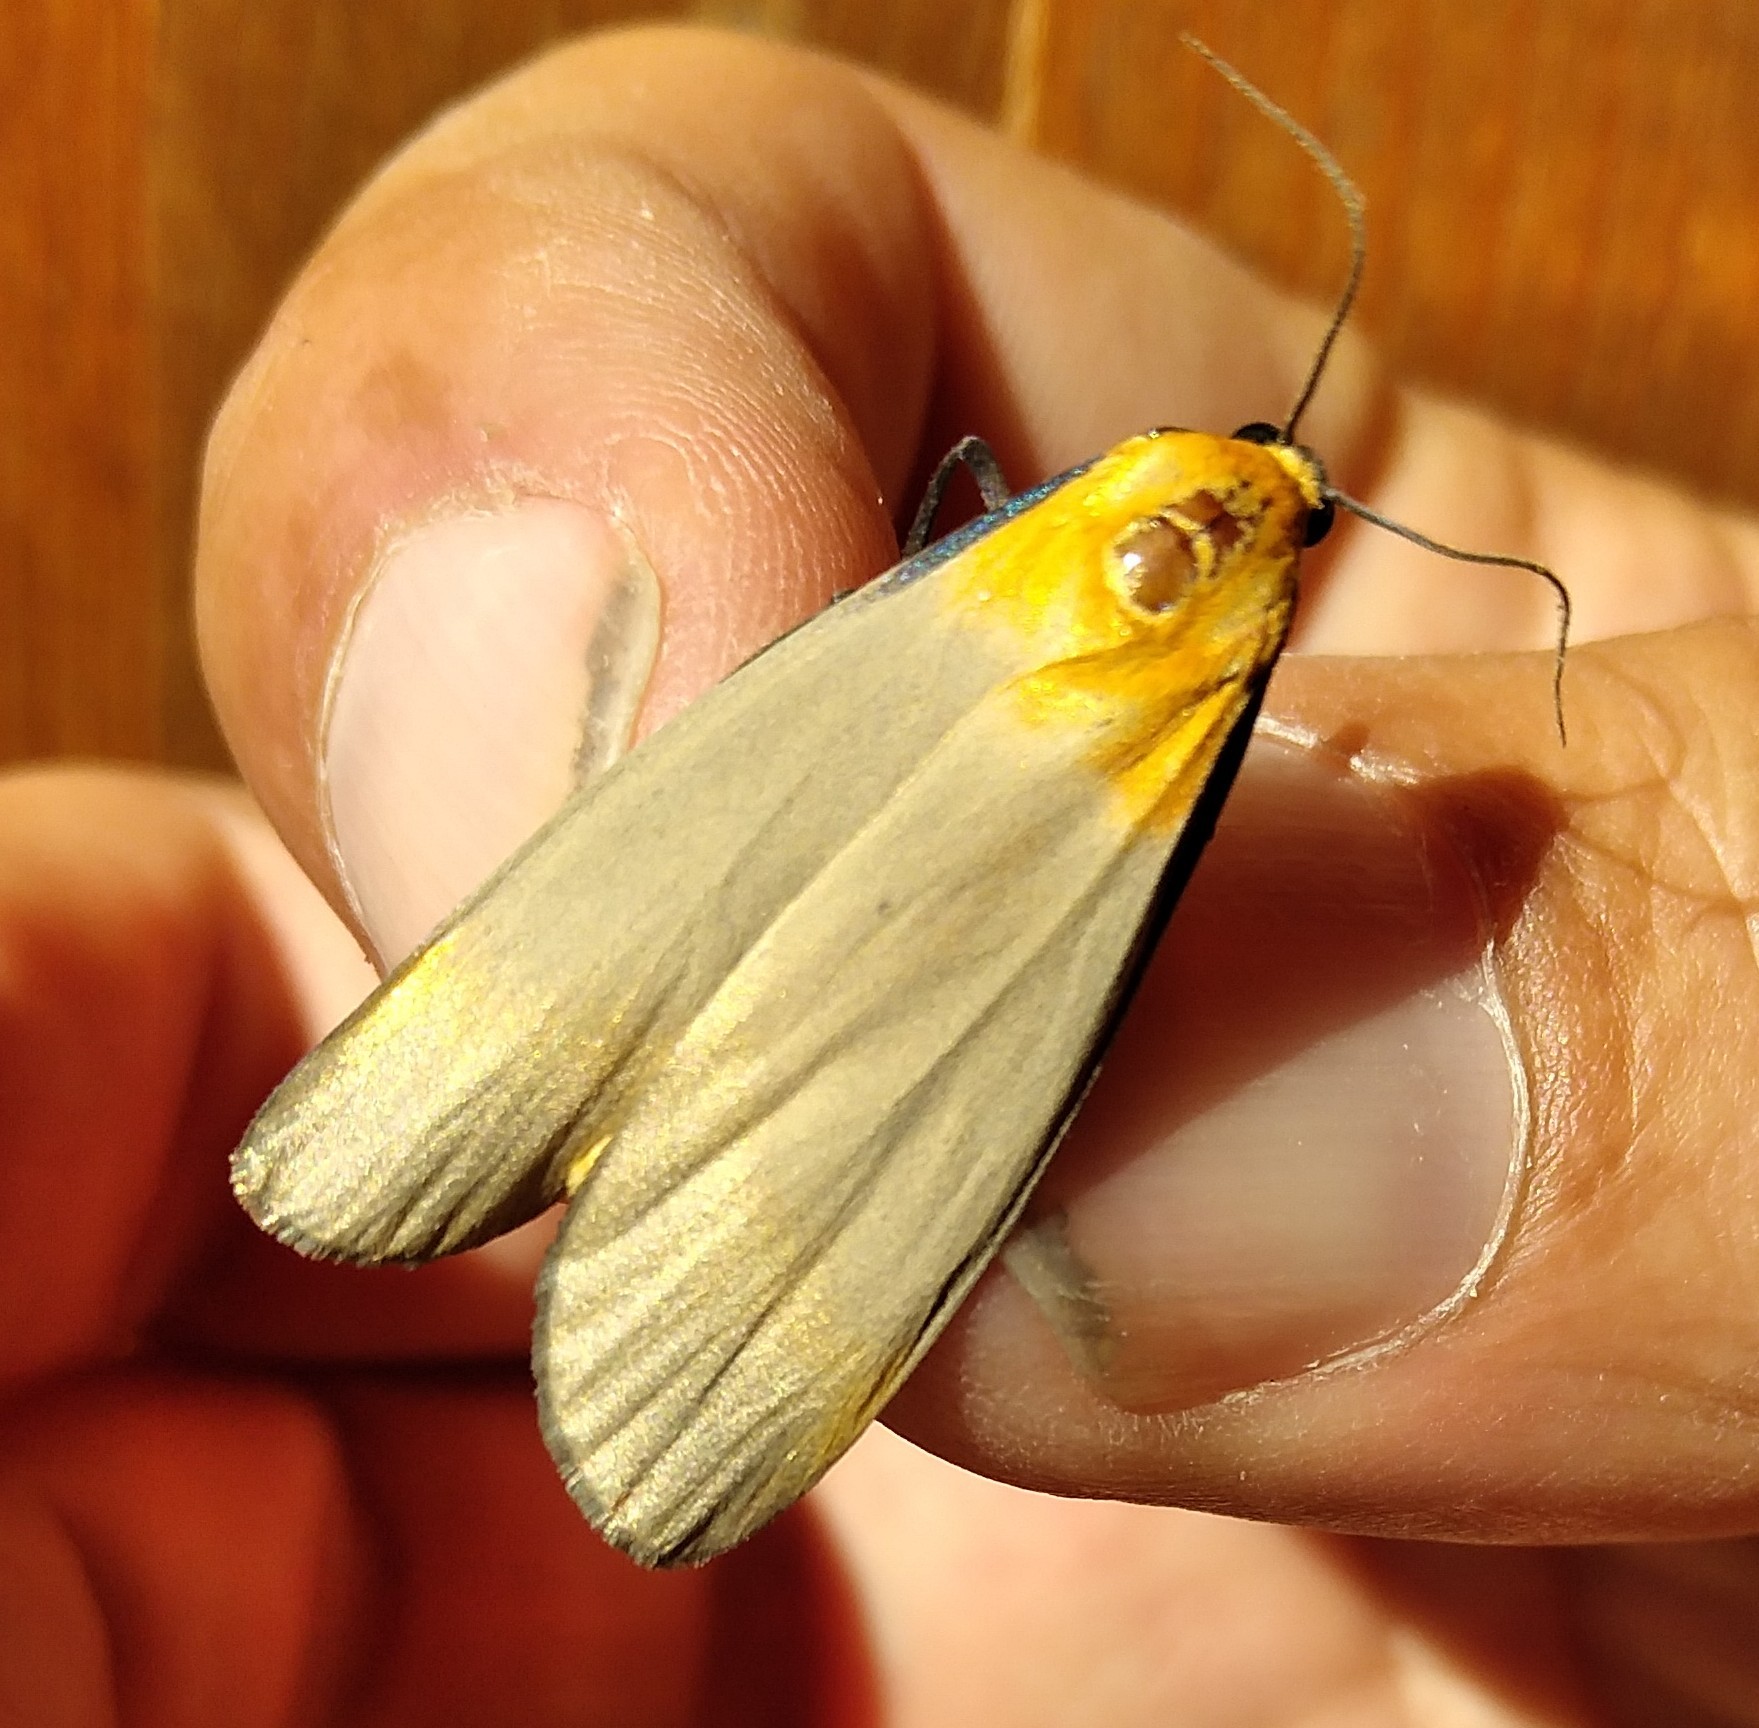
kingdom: Animalia
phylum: Arthropoda
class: Insecta
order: Lepidoptera
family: Erebidae
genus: Lithosia
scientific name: Lithosia quadra
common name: Four-spotted footman
